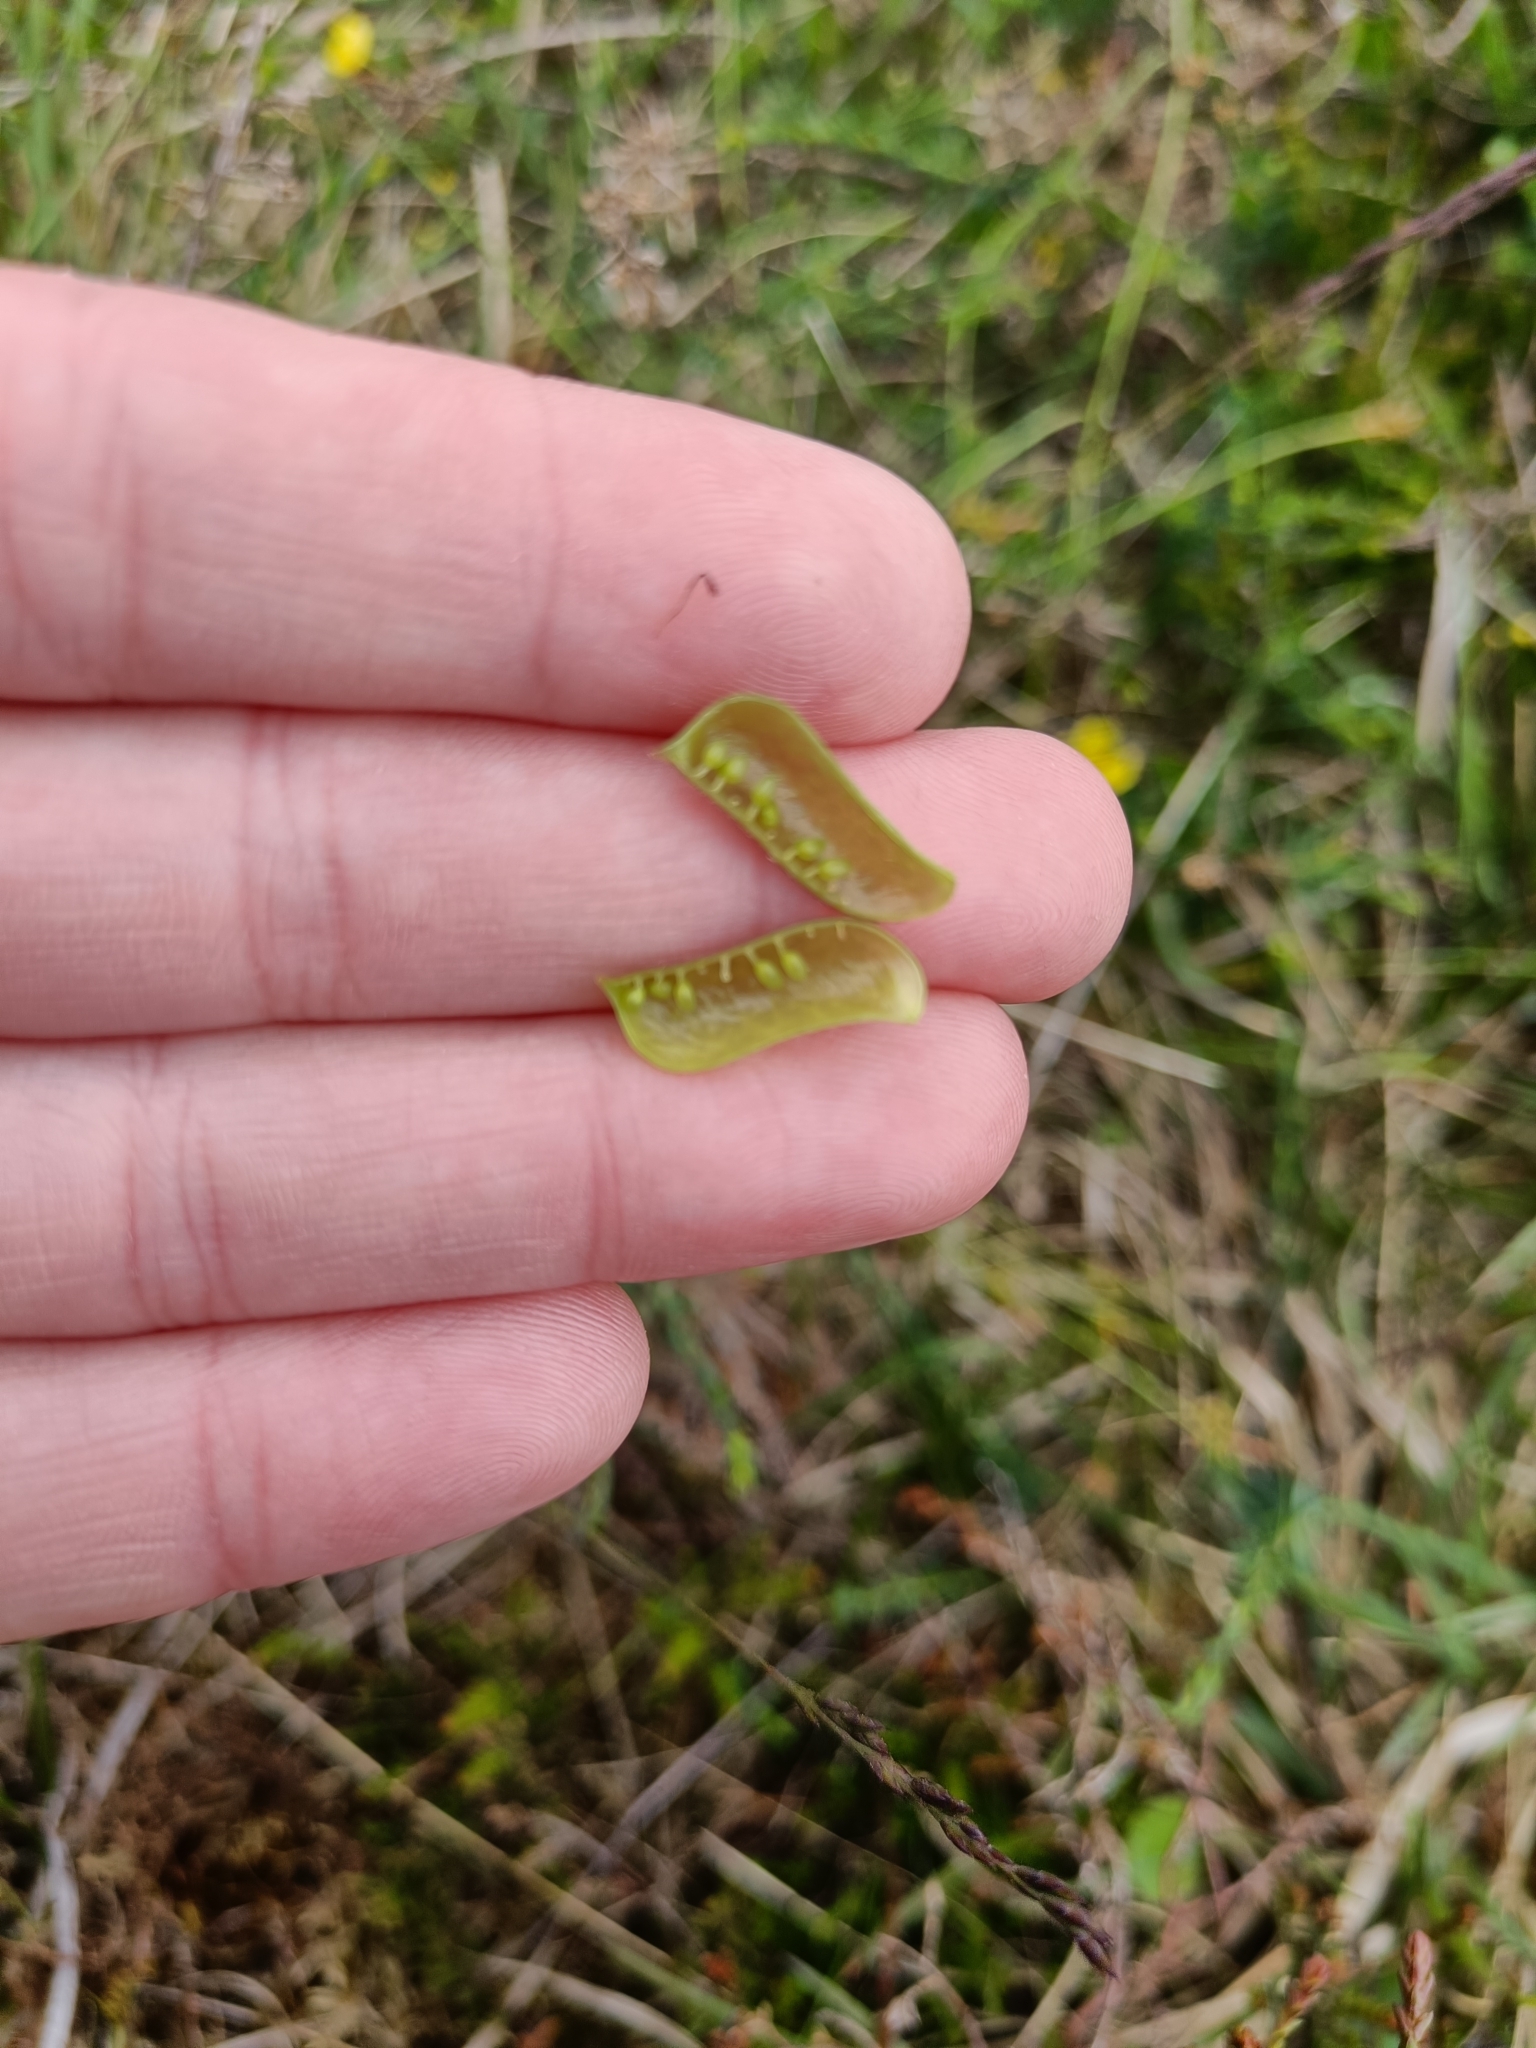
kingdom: Plantae
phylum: Tracheophyta
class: Magnoliopsida
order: Fabales
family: Fabaceae
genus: Genista
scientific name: Genista anglica
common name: Petty whin
